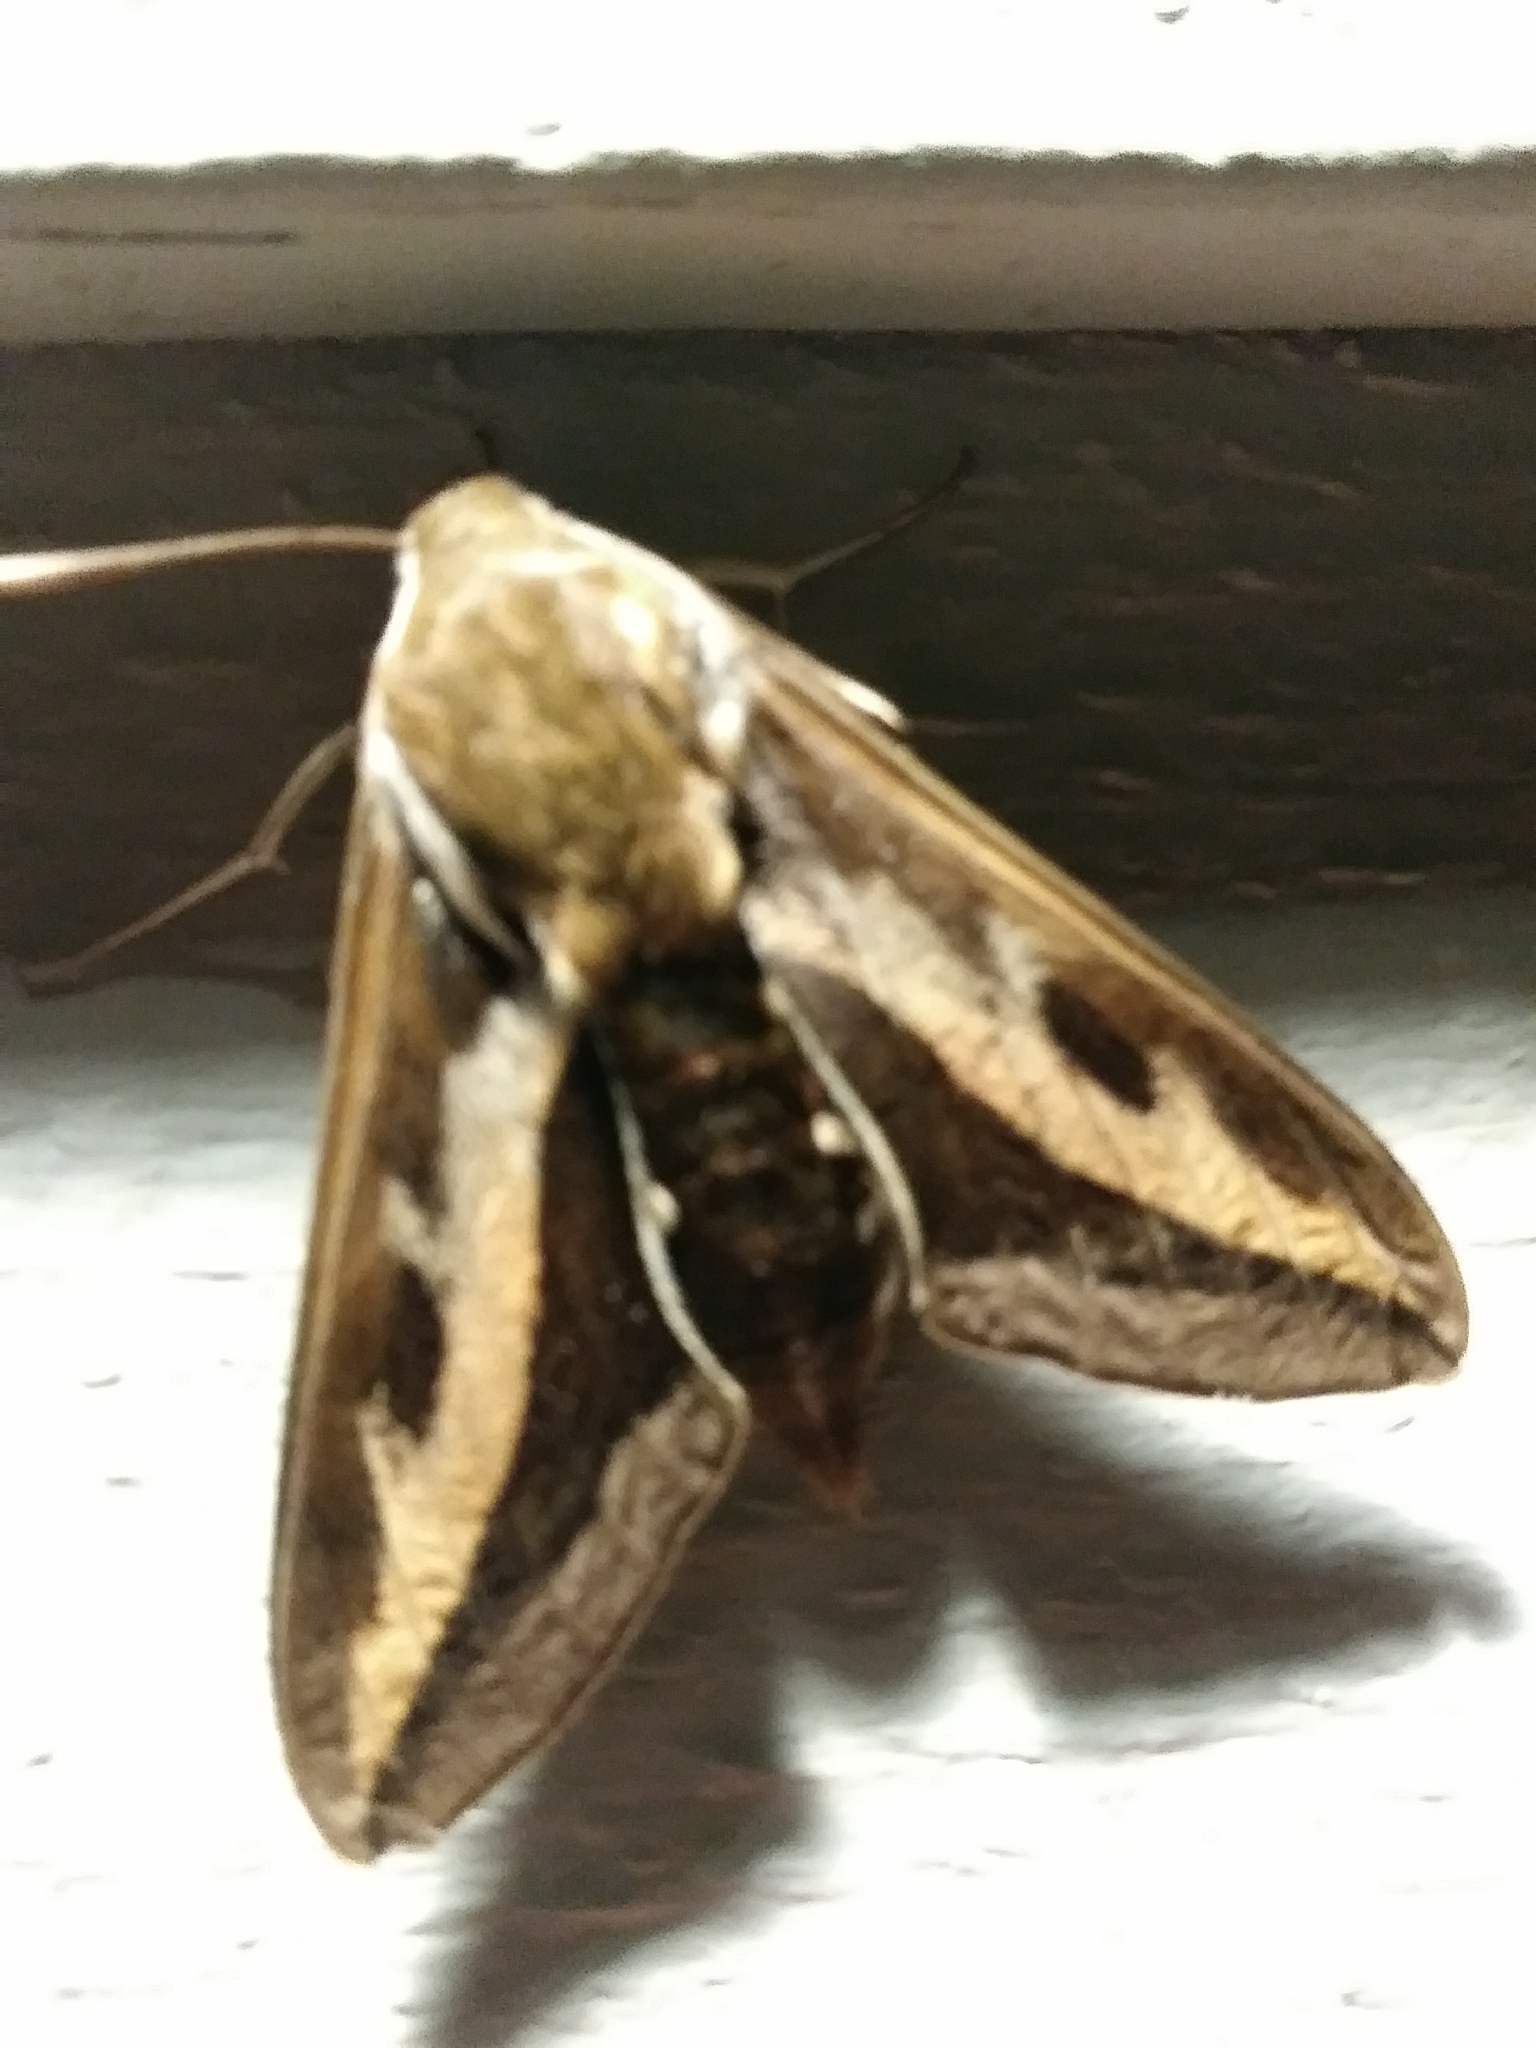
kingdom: Animalia
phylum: Arthropoda
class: Insecta
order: Lepidoptera
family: Sphingidae
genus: Hyles
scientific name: Hyles gallii
